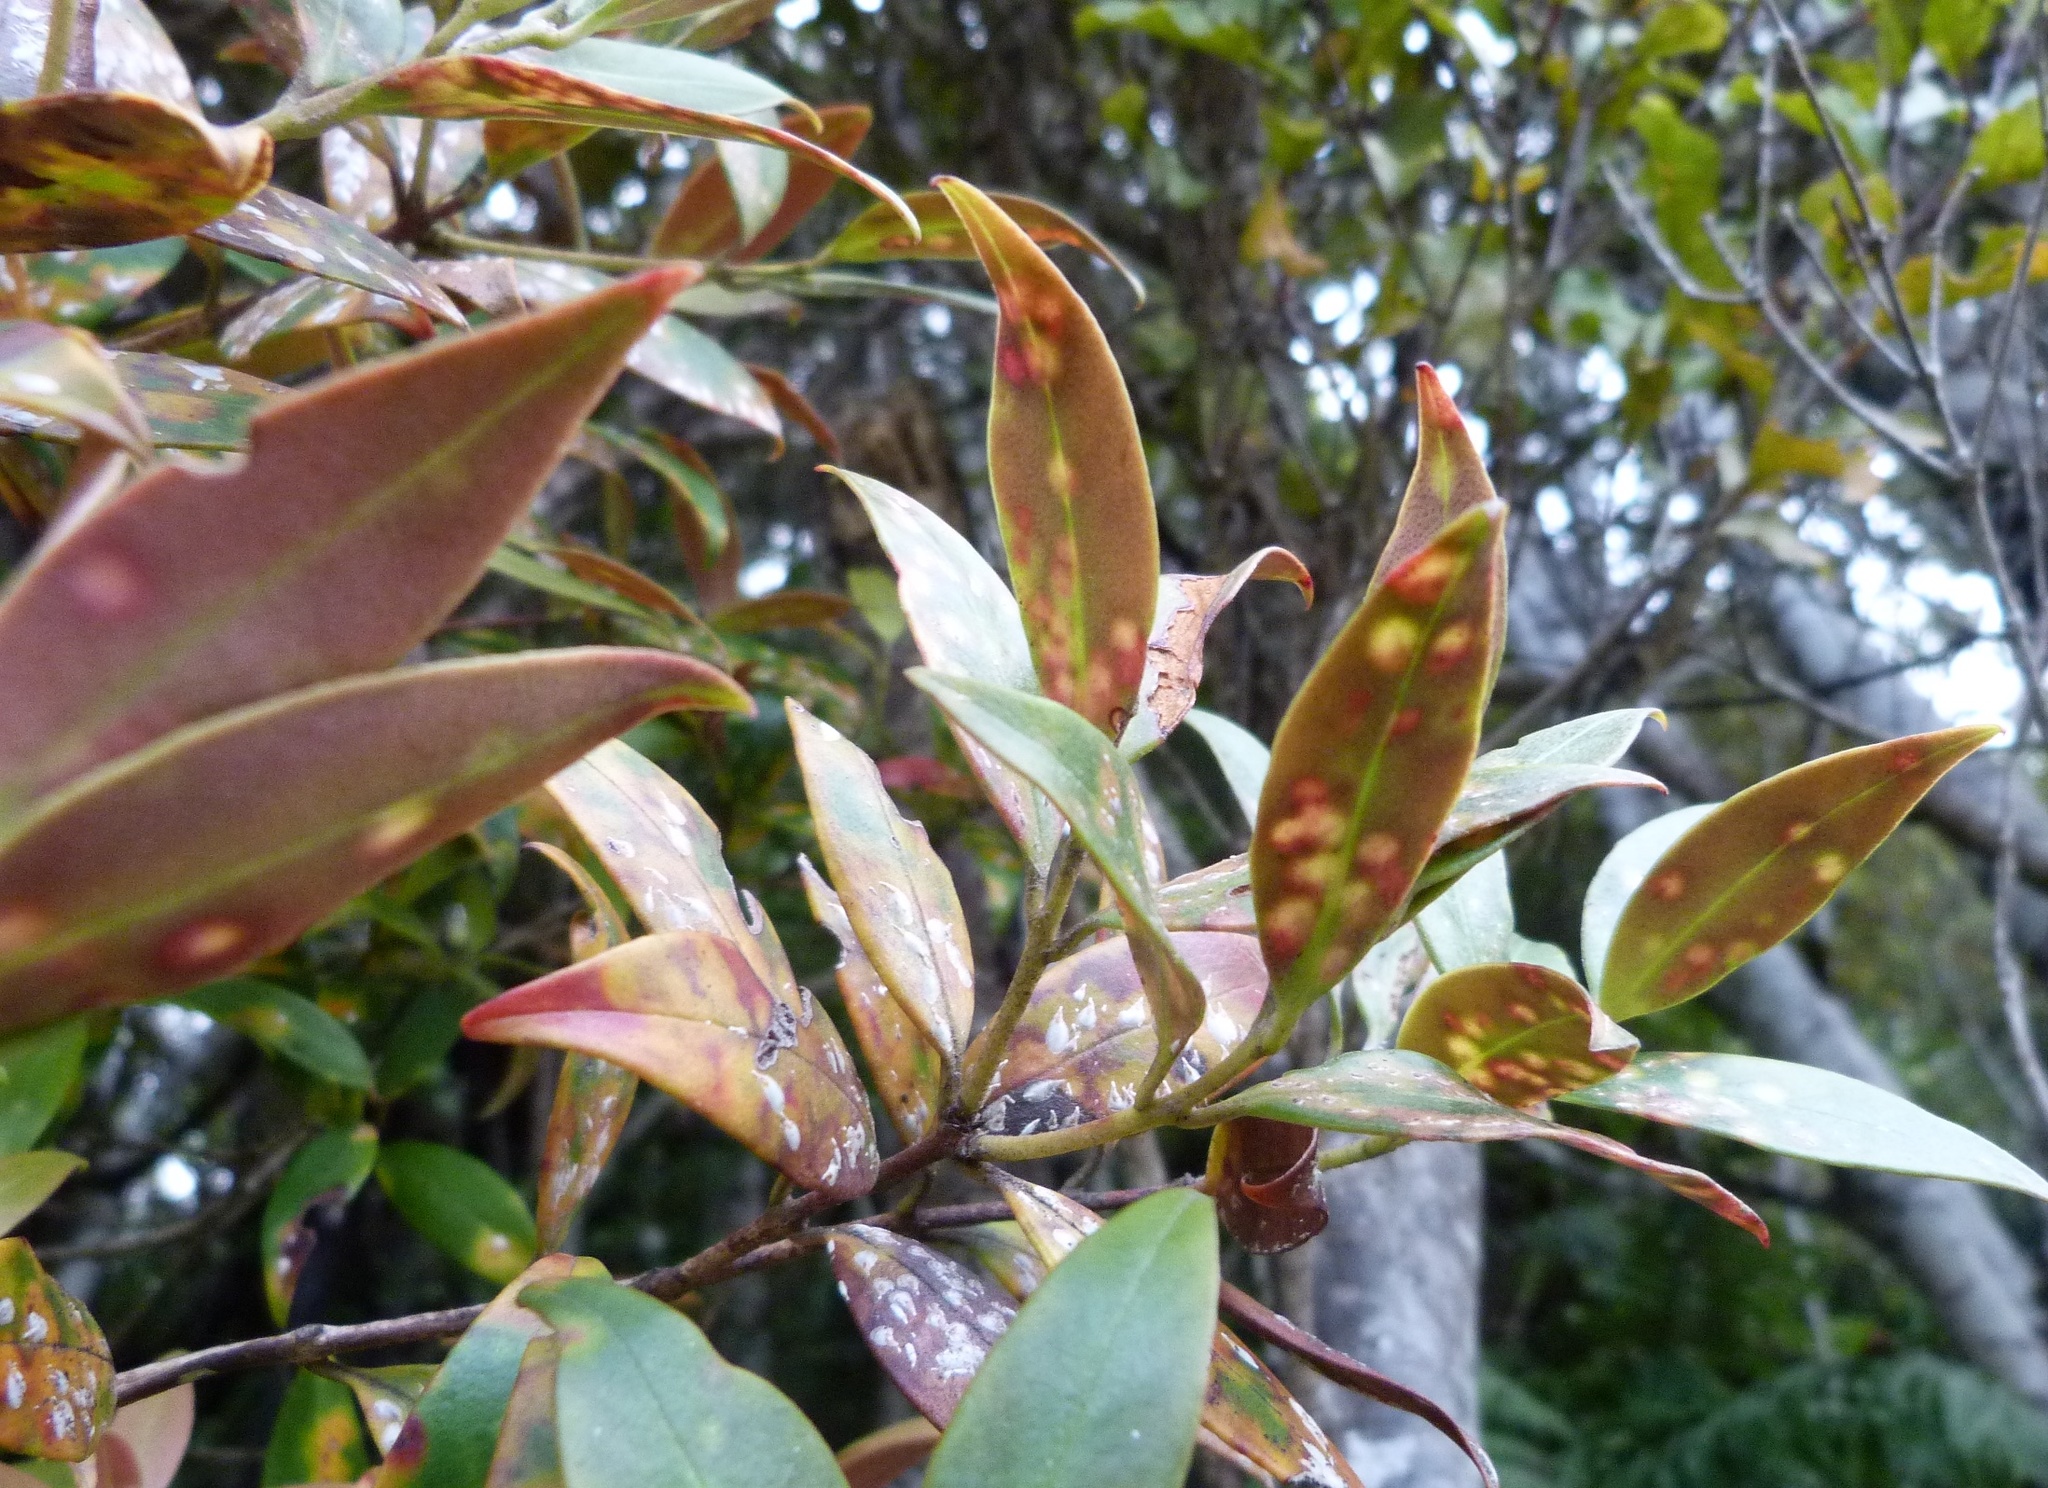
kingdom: Plantae
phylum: Tracheophyta
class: Magnoliopsida
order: Myrtales
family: Myrtaceae
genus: Metrosideros
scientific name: Metrosideros umbellata
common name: Southern rata
